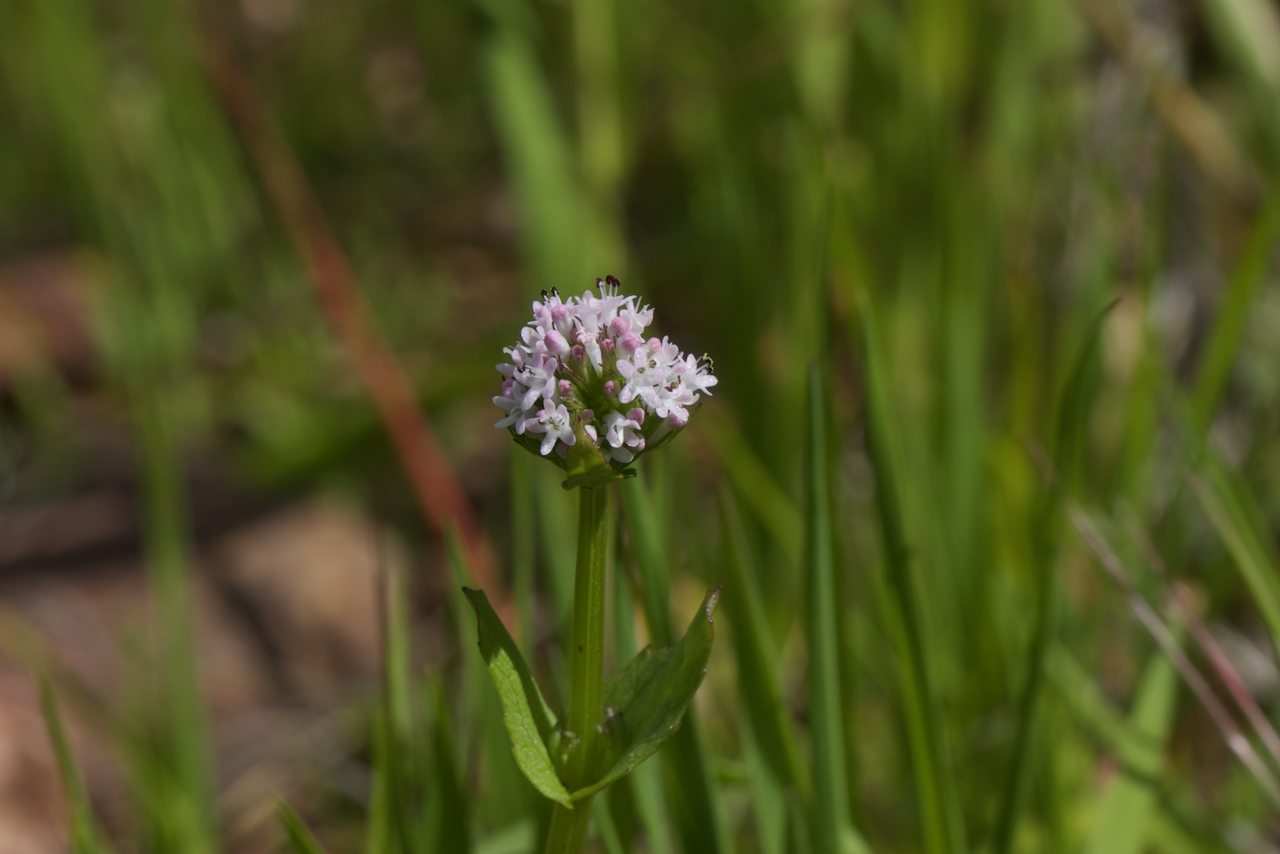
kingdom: Plantae
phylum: Tracheophyta
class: Magnoliopsida
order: Dipsacales
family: Caprifoliaceae
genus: Plectritis
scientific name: Plectritis macroptera
